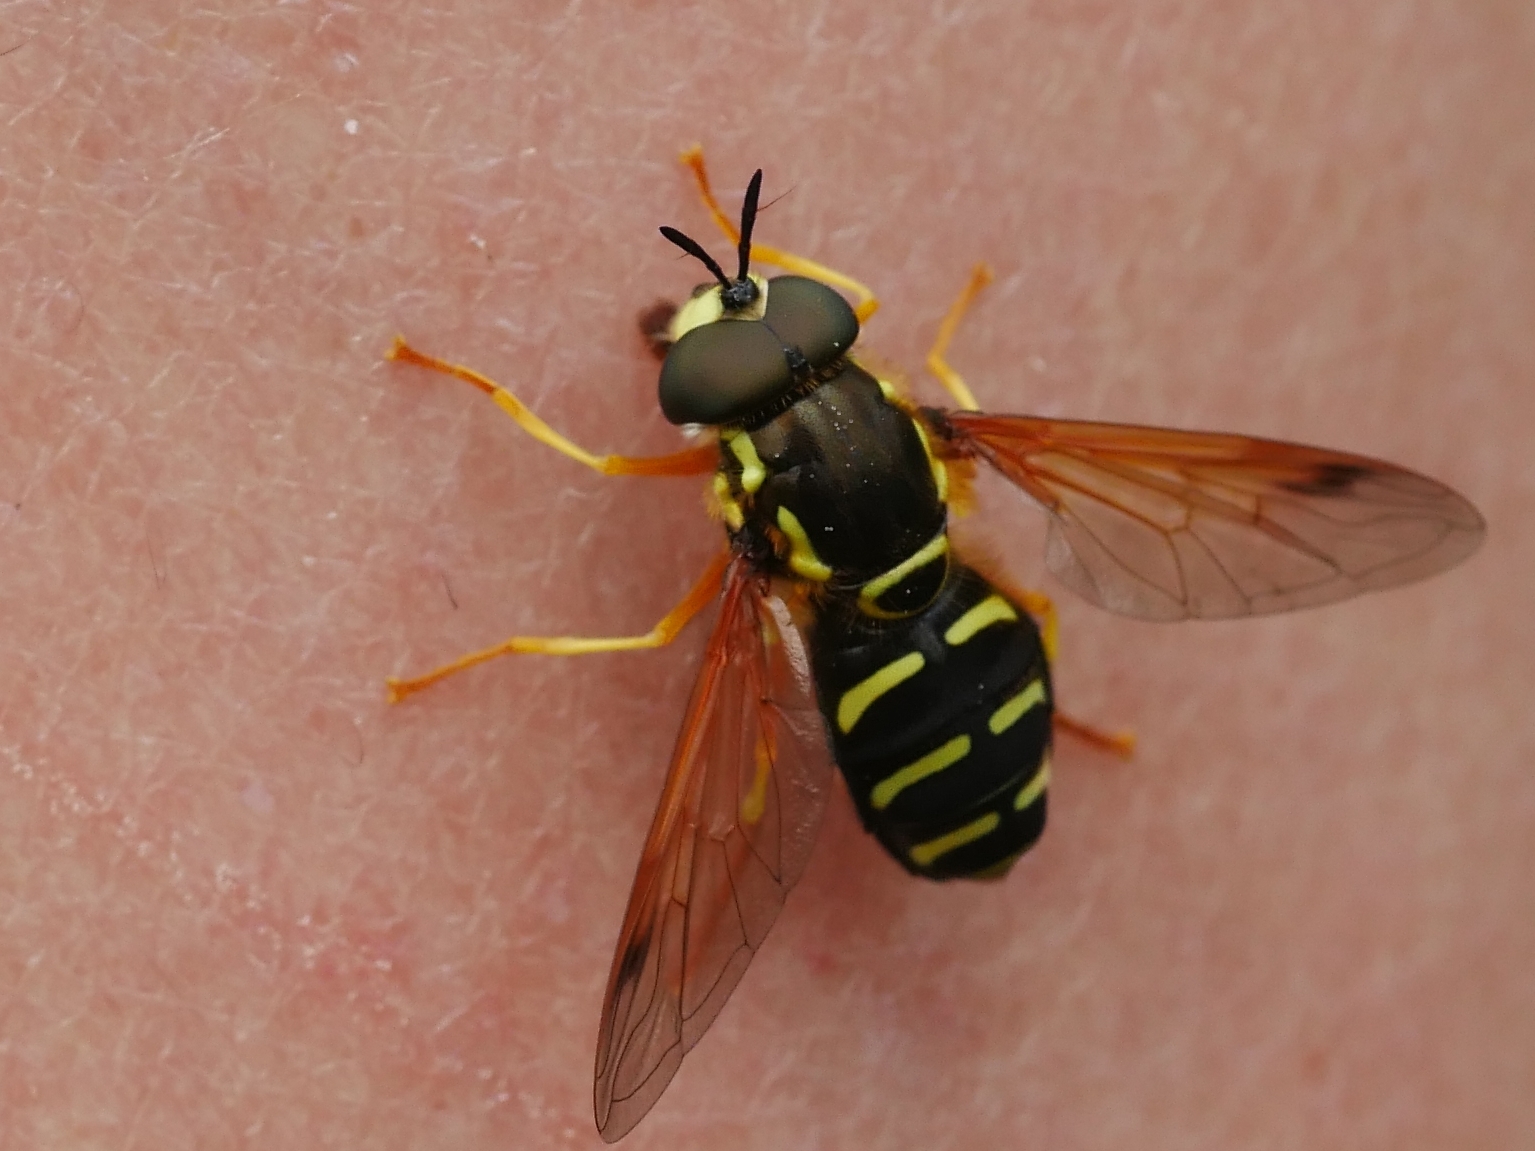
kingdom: Animalia
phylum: Arthropoda
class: Insecta
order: Diptera
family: Syrphidae
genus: Chrysotoxum
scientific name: Chrysotoxum festivum
